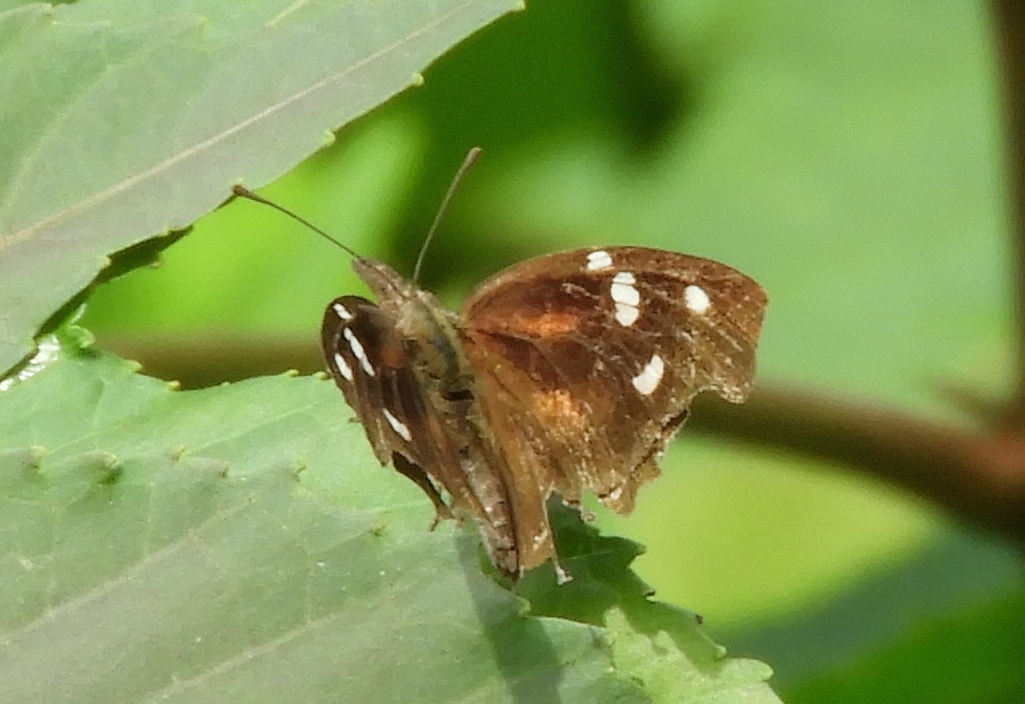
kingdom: Animalia
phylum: Arthropoda
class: Insecta
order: Lepidoptera
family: Nymphalidae
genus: Libytheana
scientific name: Libytheana carinenta
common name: American snout
